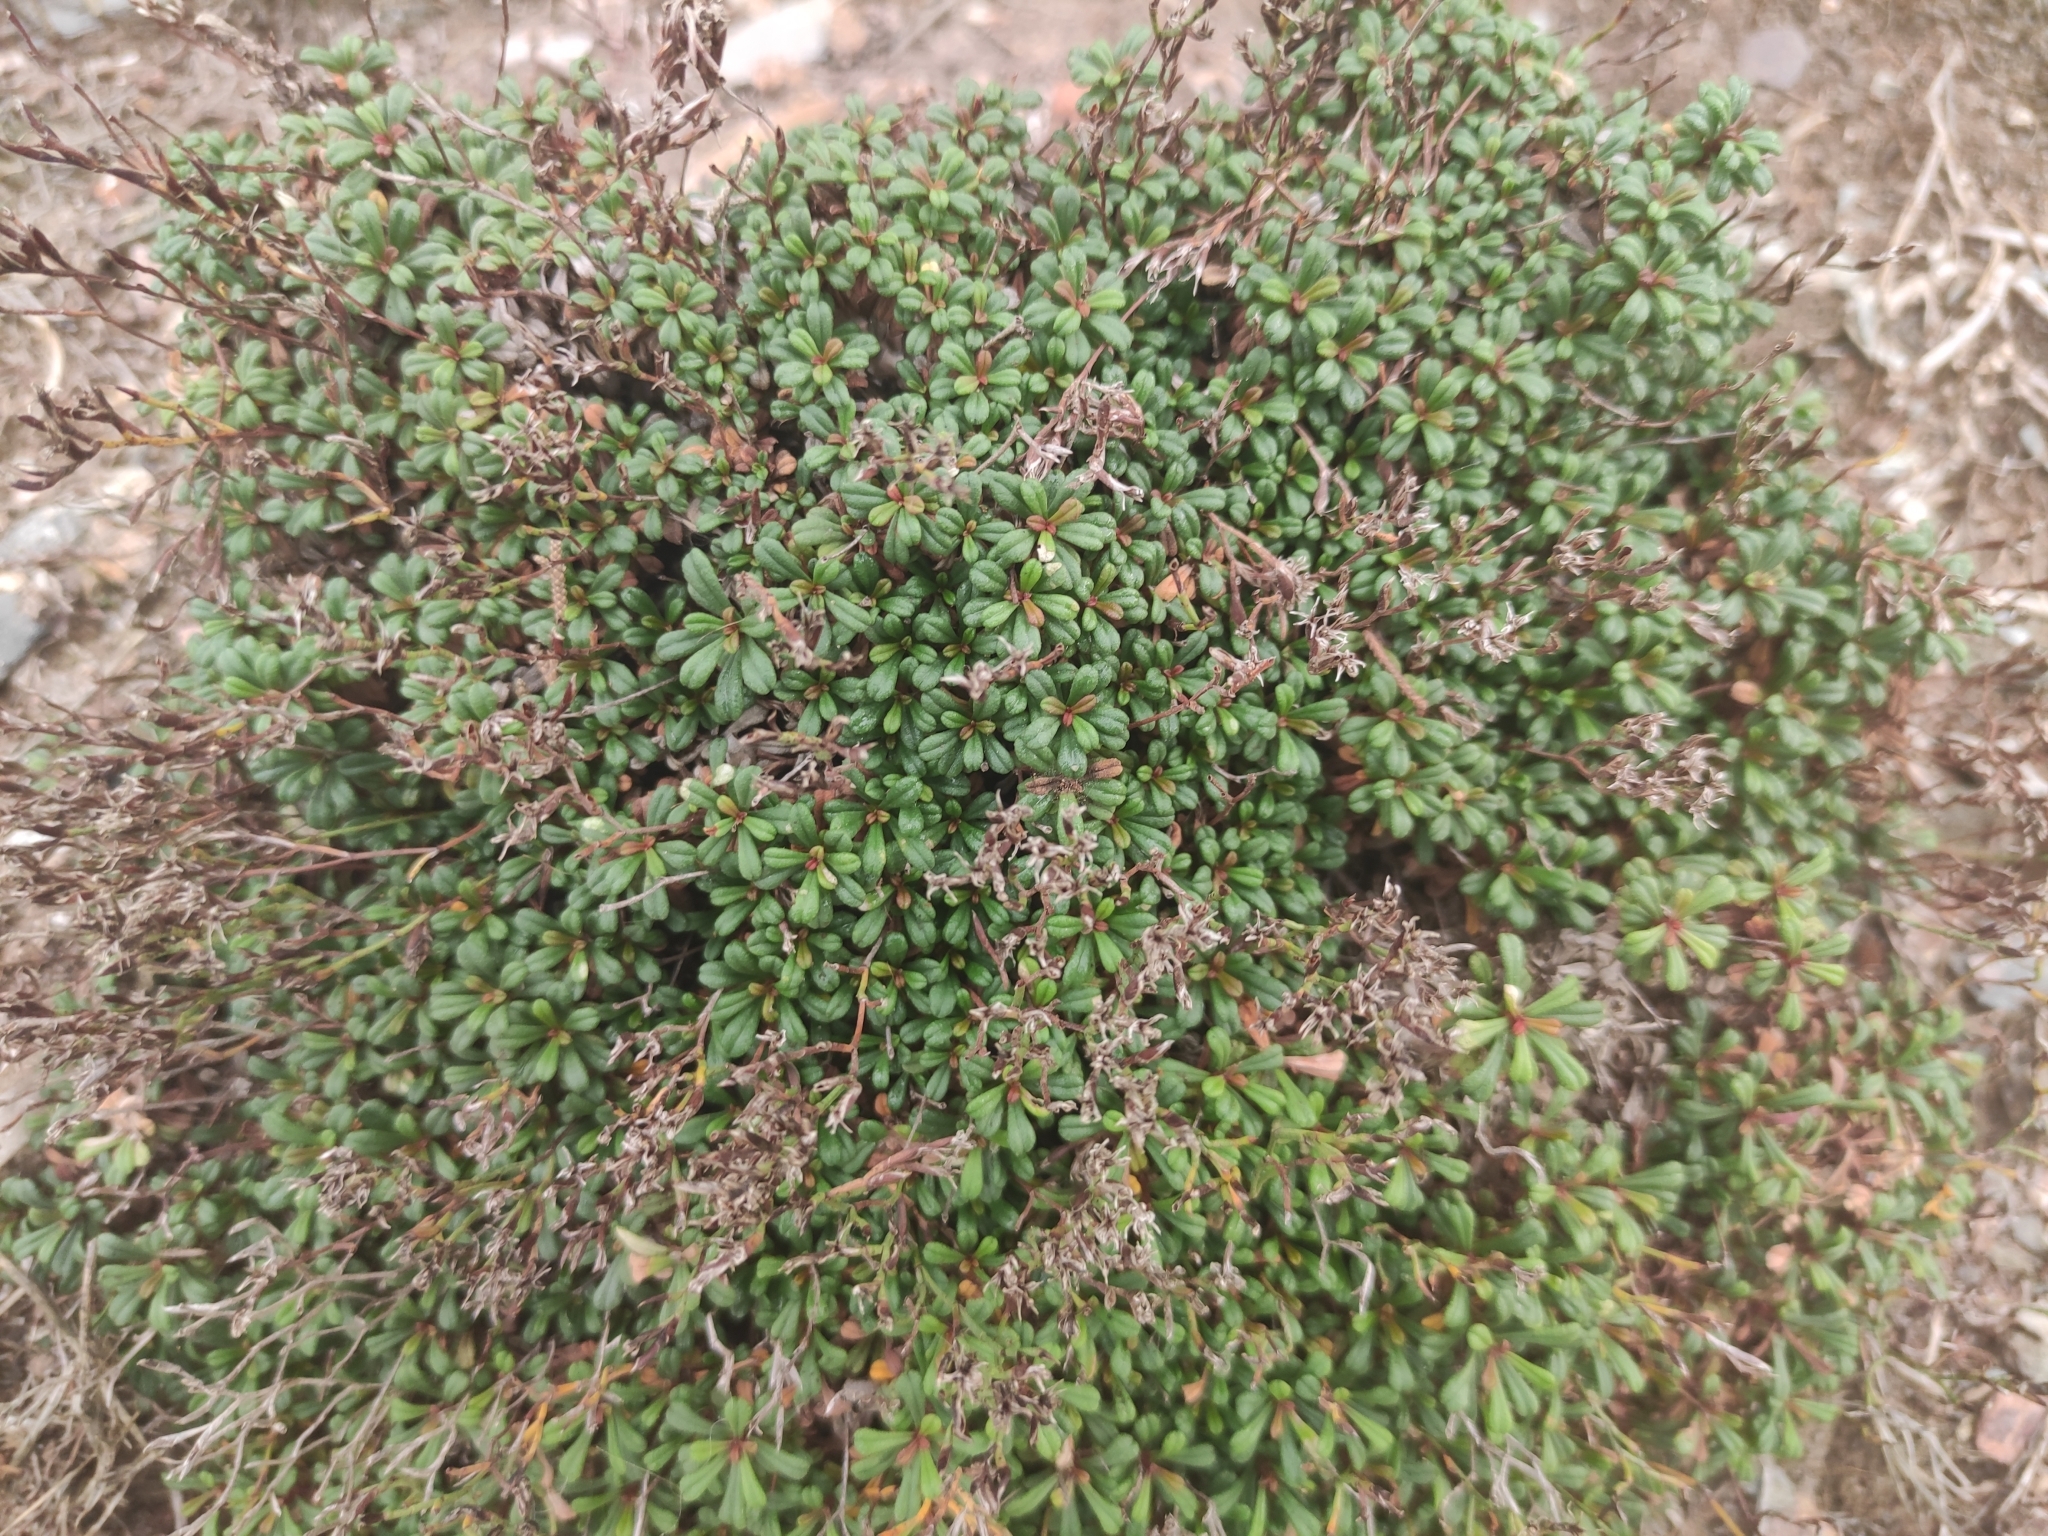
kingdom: Plantae
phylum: Tracheophyta
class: Magnoliopsida
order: Caryophyllales
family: Plumbaginaceae
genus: Limonium
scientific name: Limonium pseudominutum
